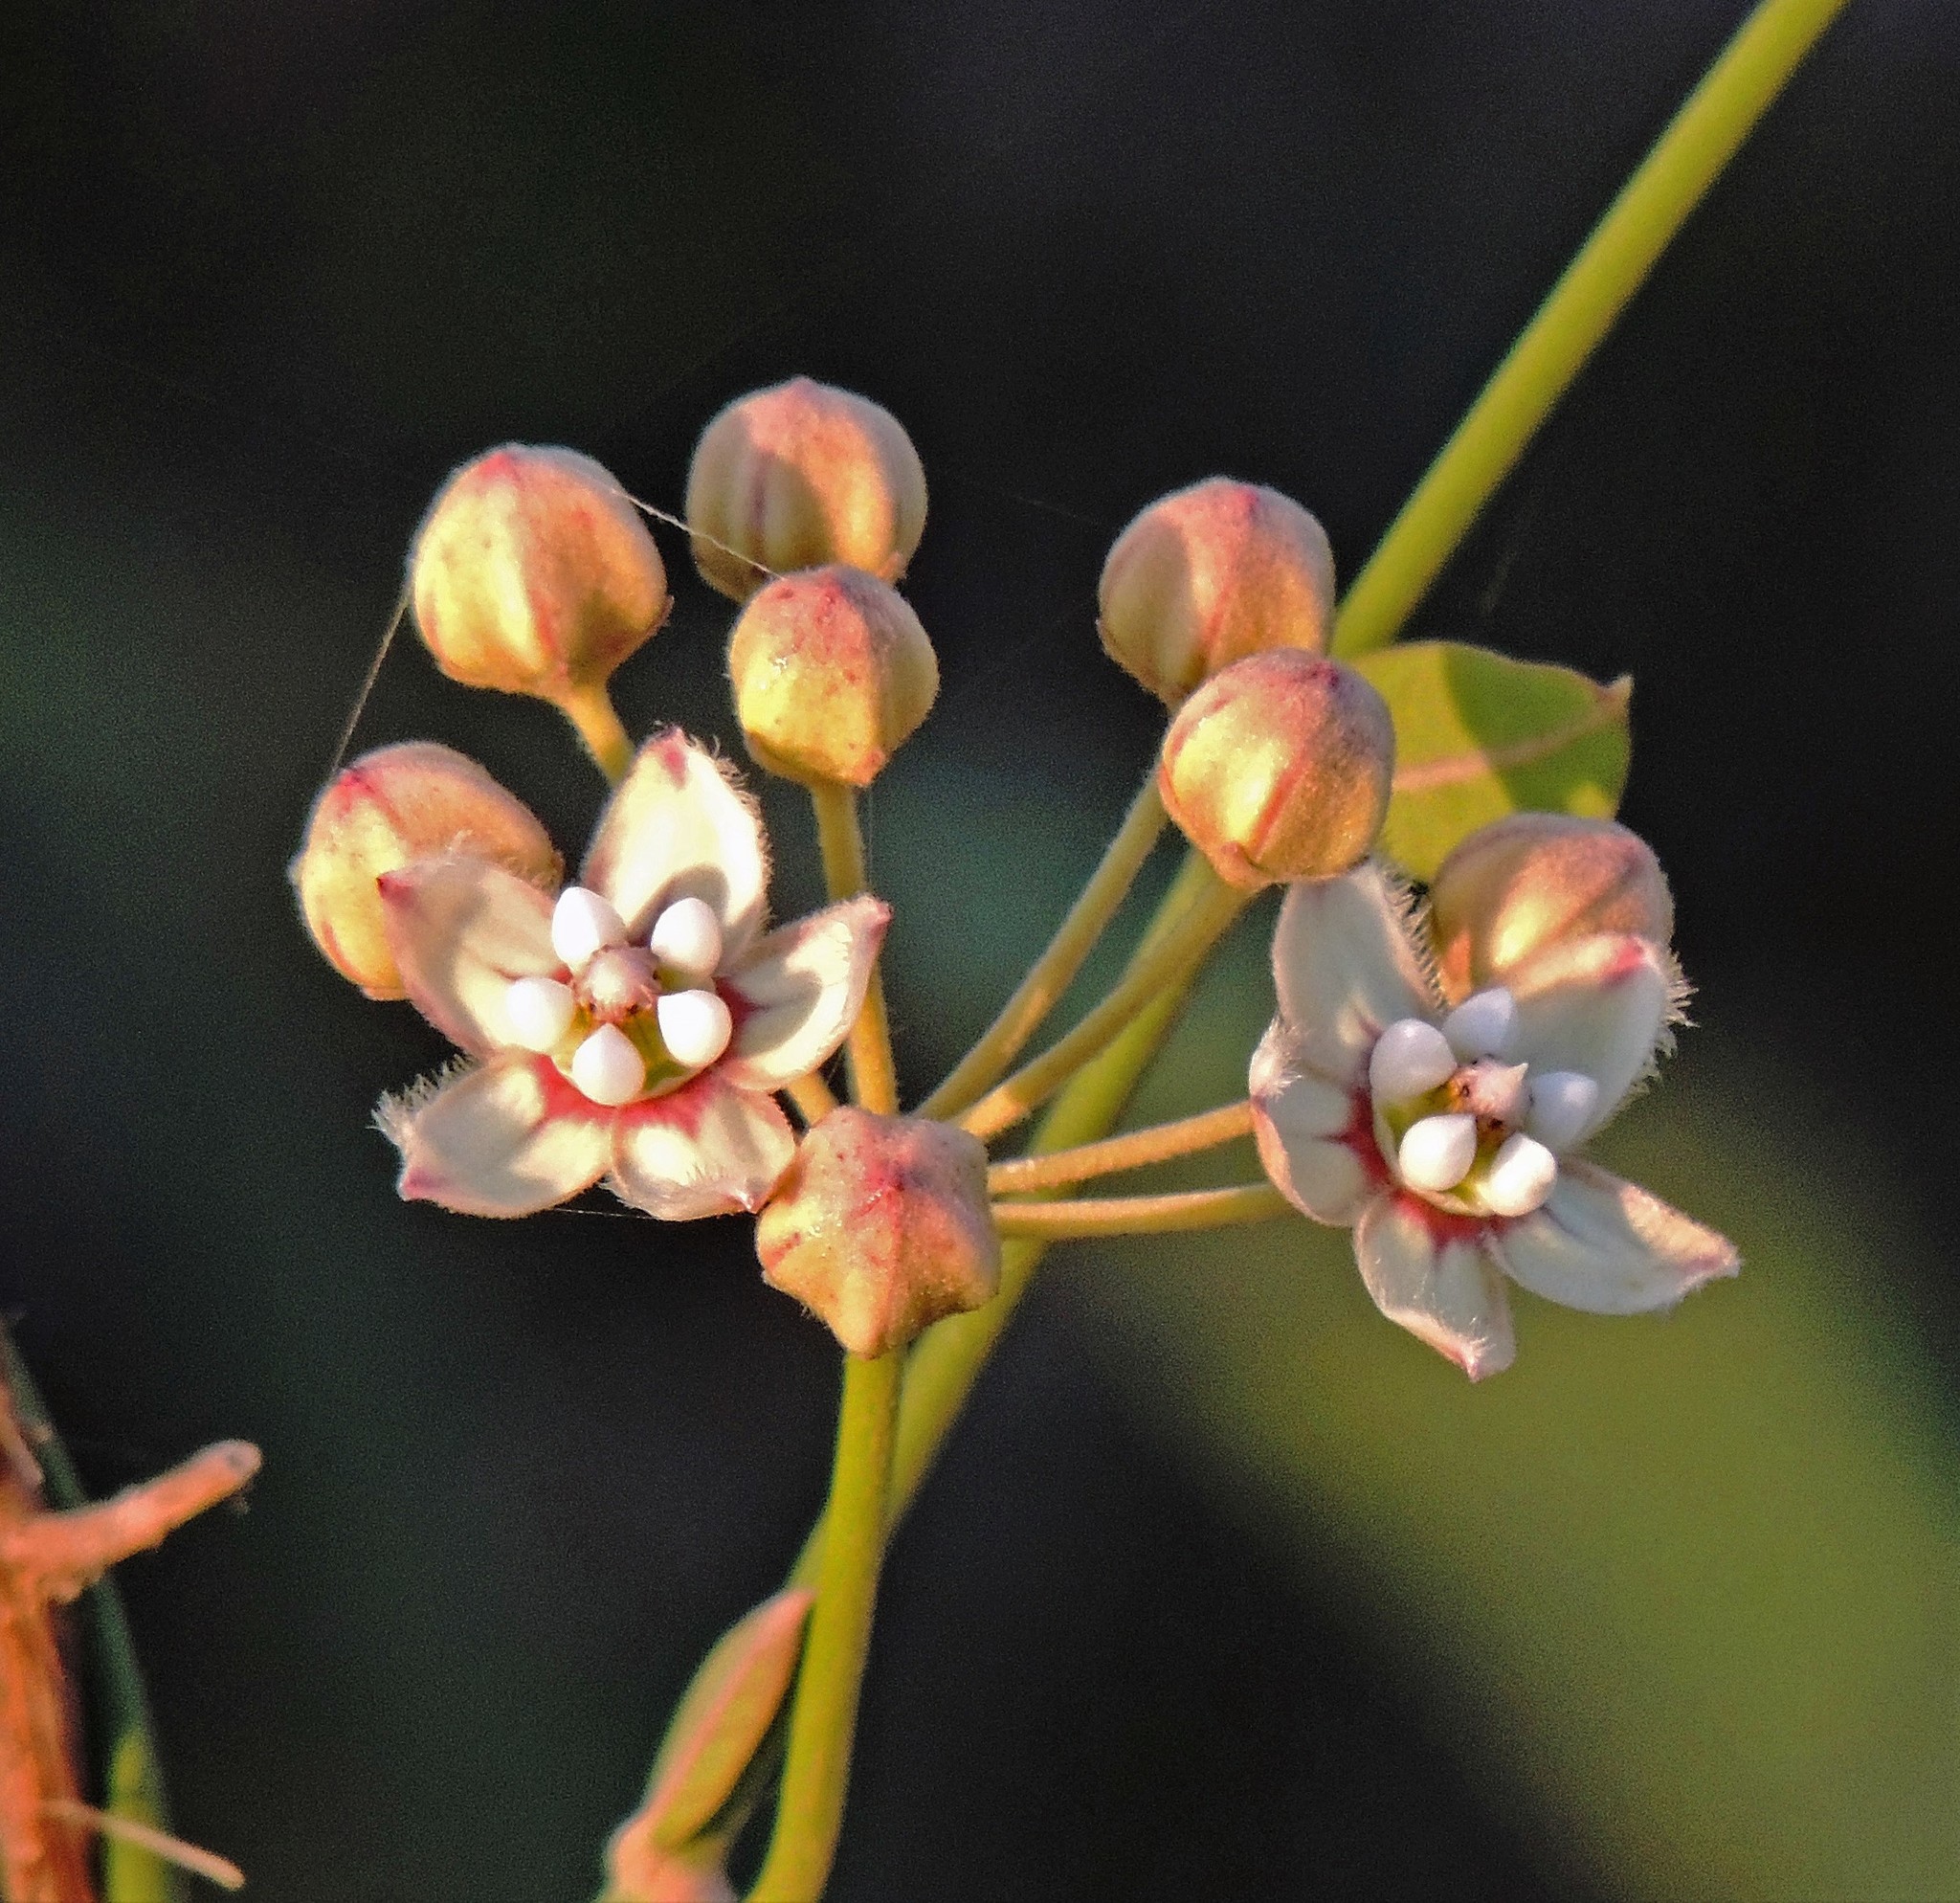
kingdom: Plantae
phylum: Tracheophyta
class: Magnoliopsida
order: Gentianales
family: Apocynaceae
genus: Funastrum
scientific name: Funastrum clausum
